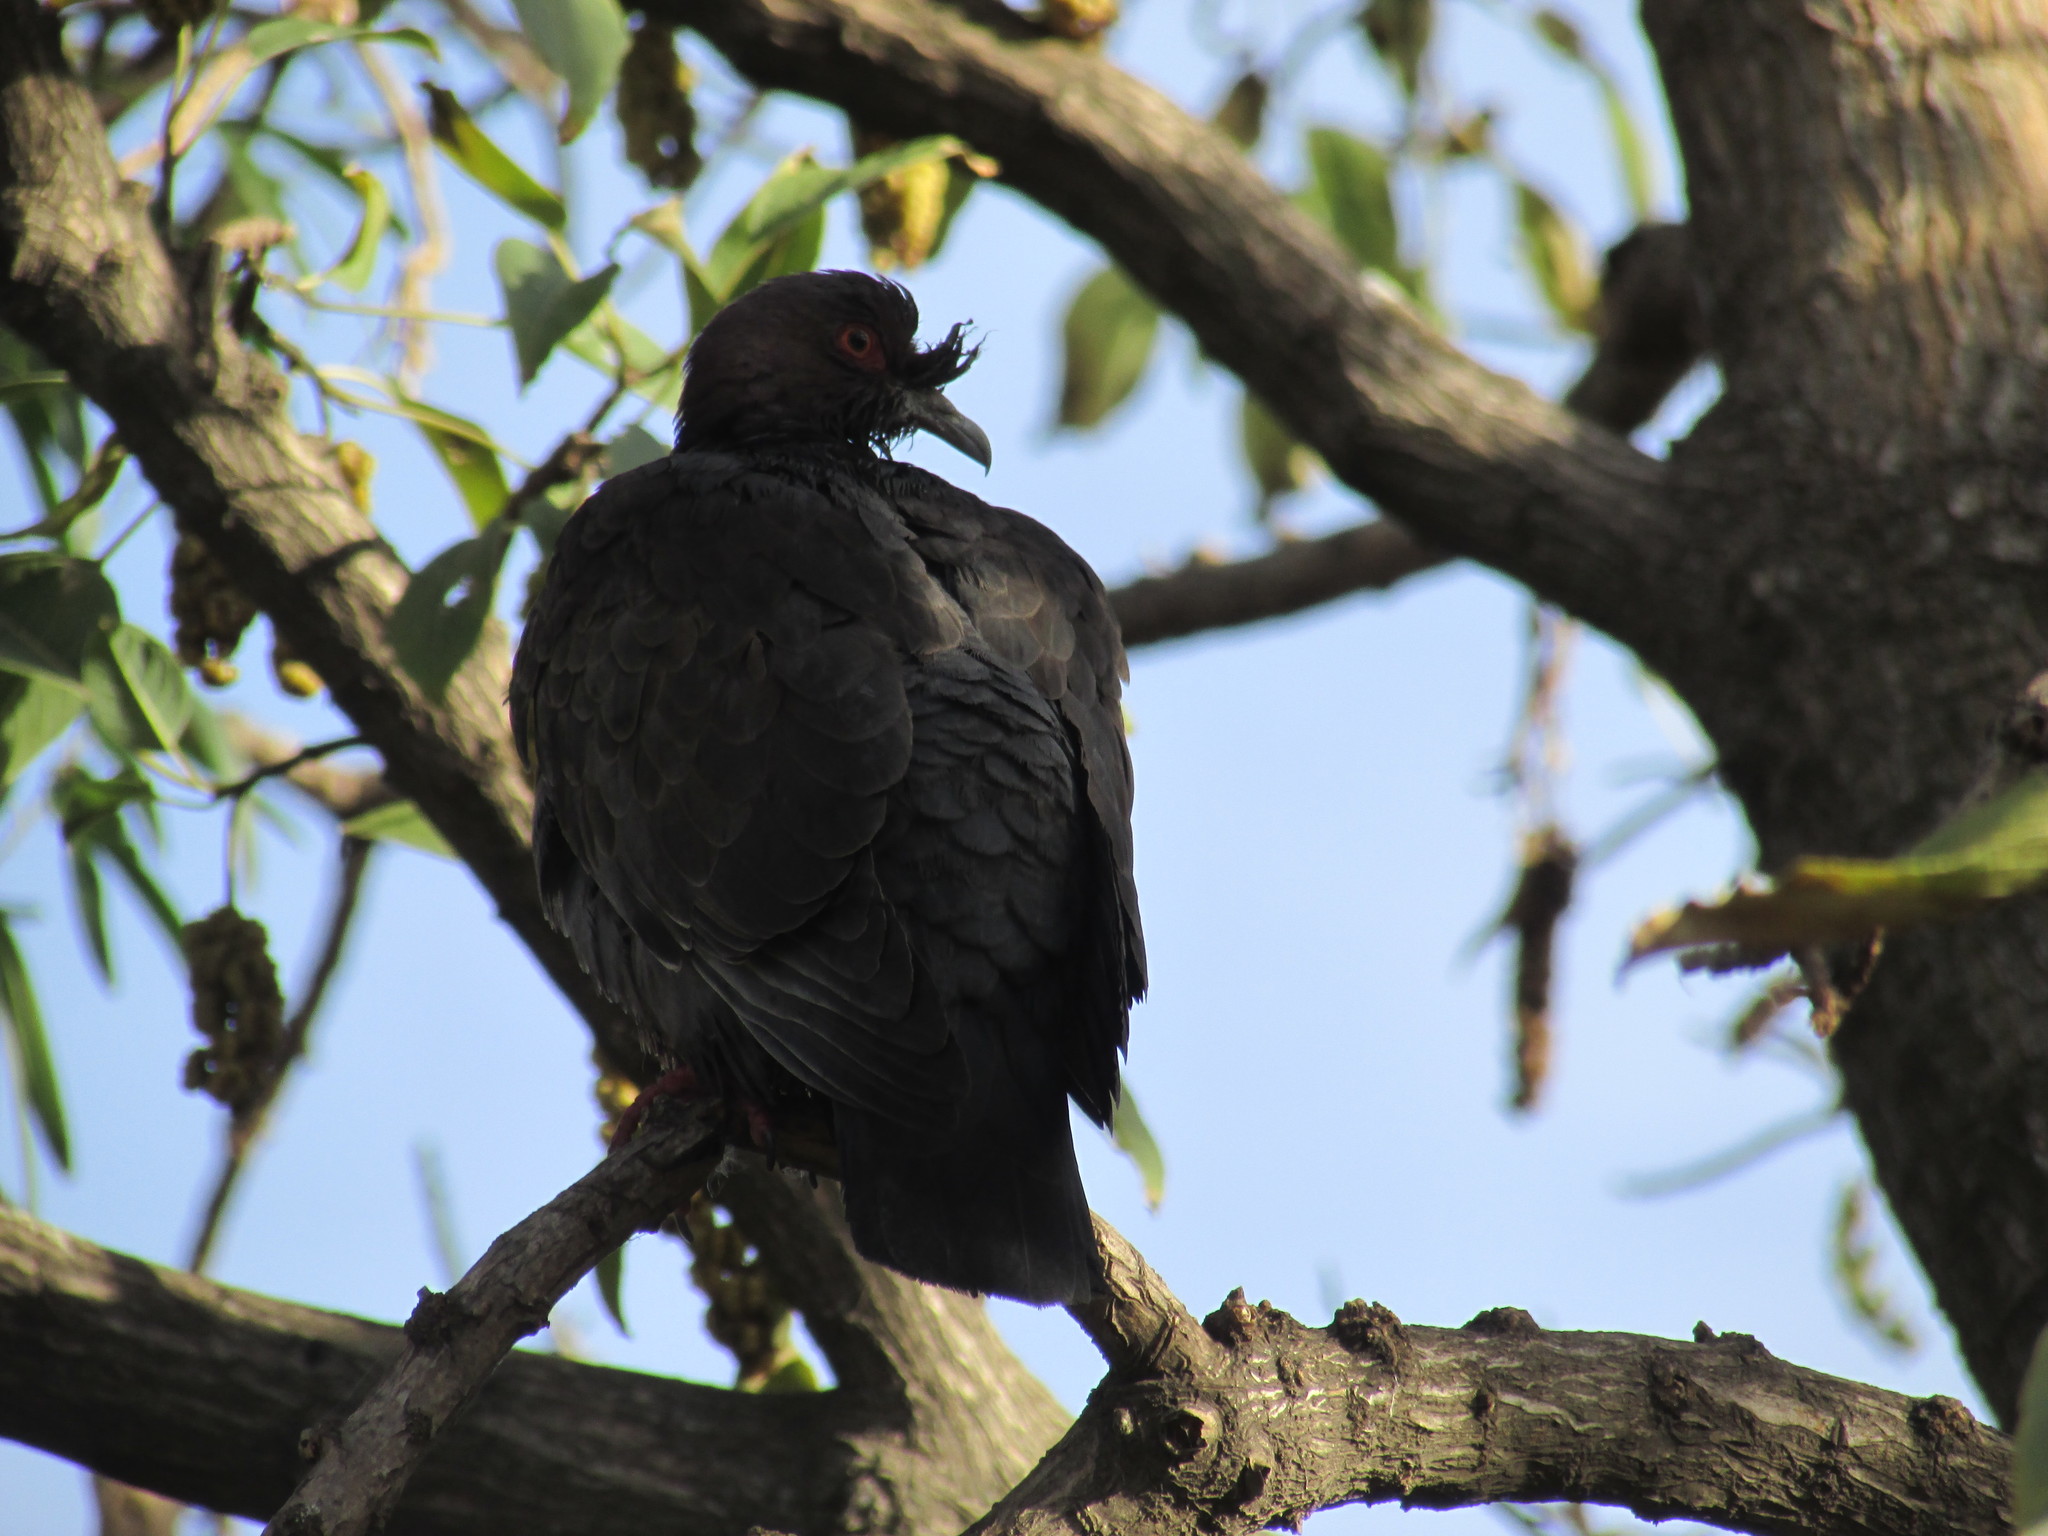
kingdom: Animalia
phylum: Chordata
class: Aves
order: Columbiformes
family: Columbidae
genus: Patagioenas
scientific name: Patagioenas picazuro
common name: Picazuro pigeon
